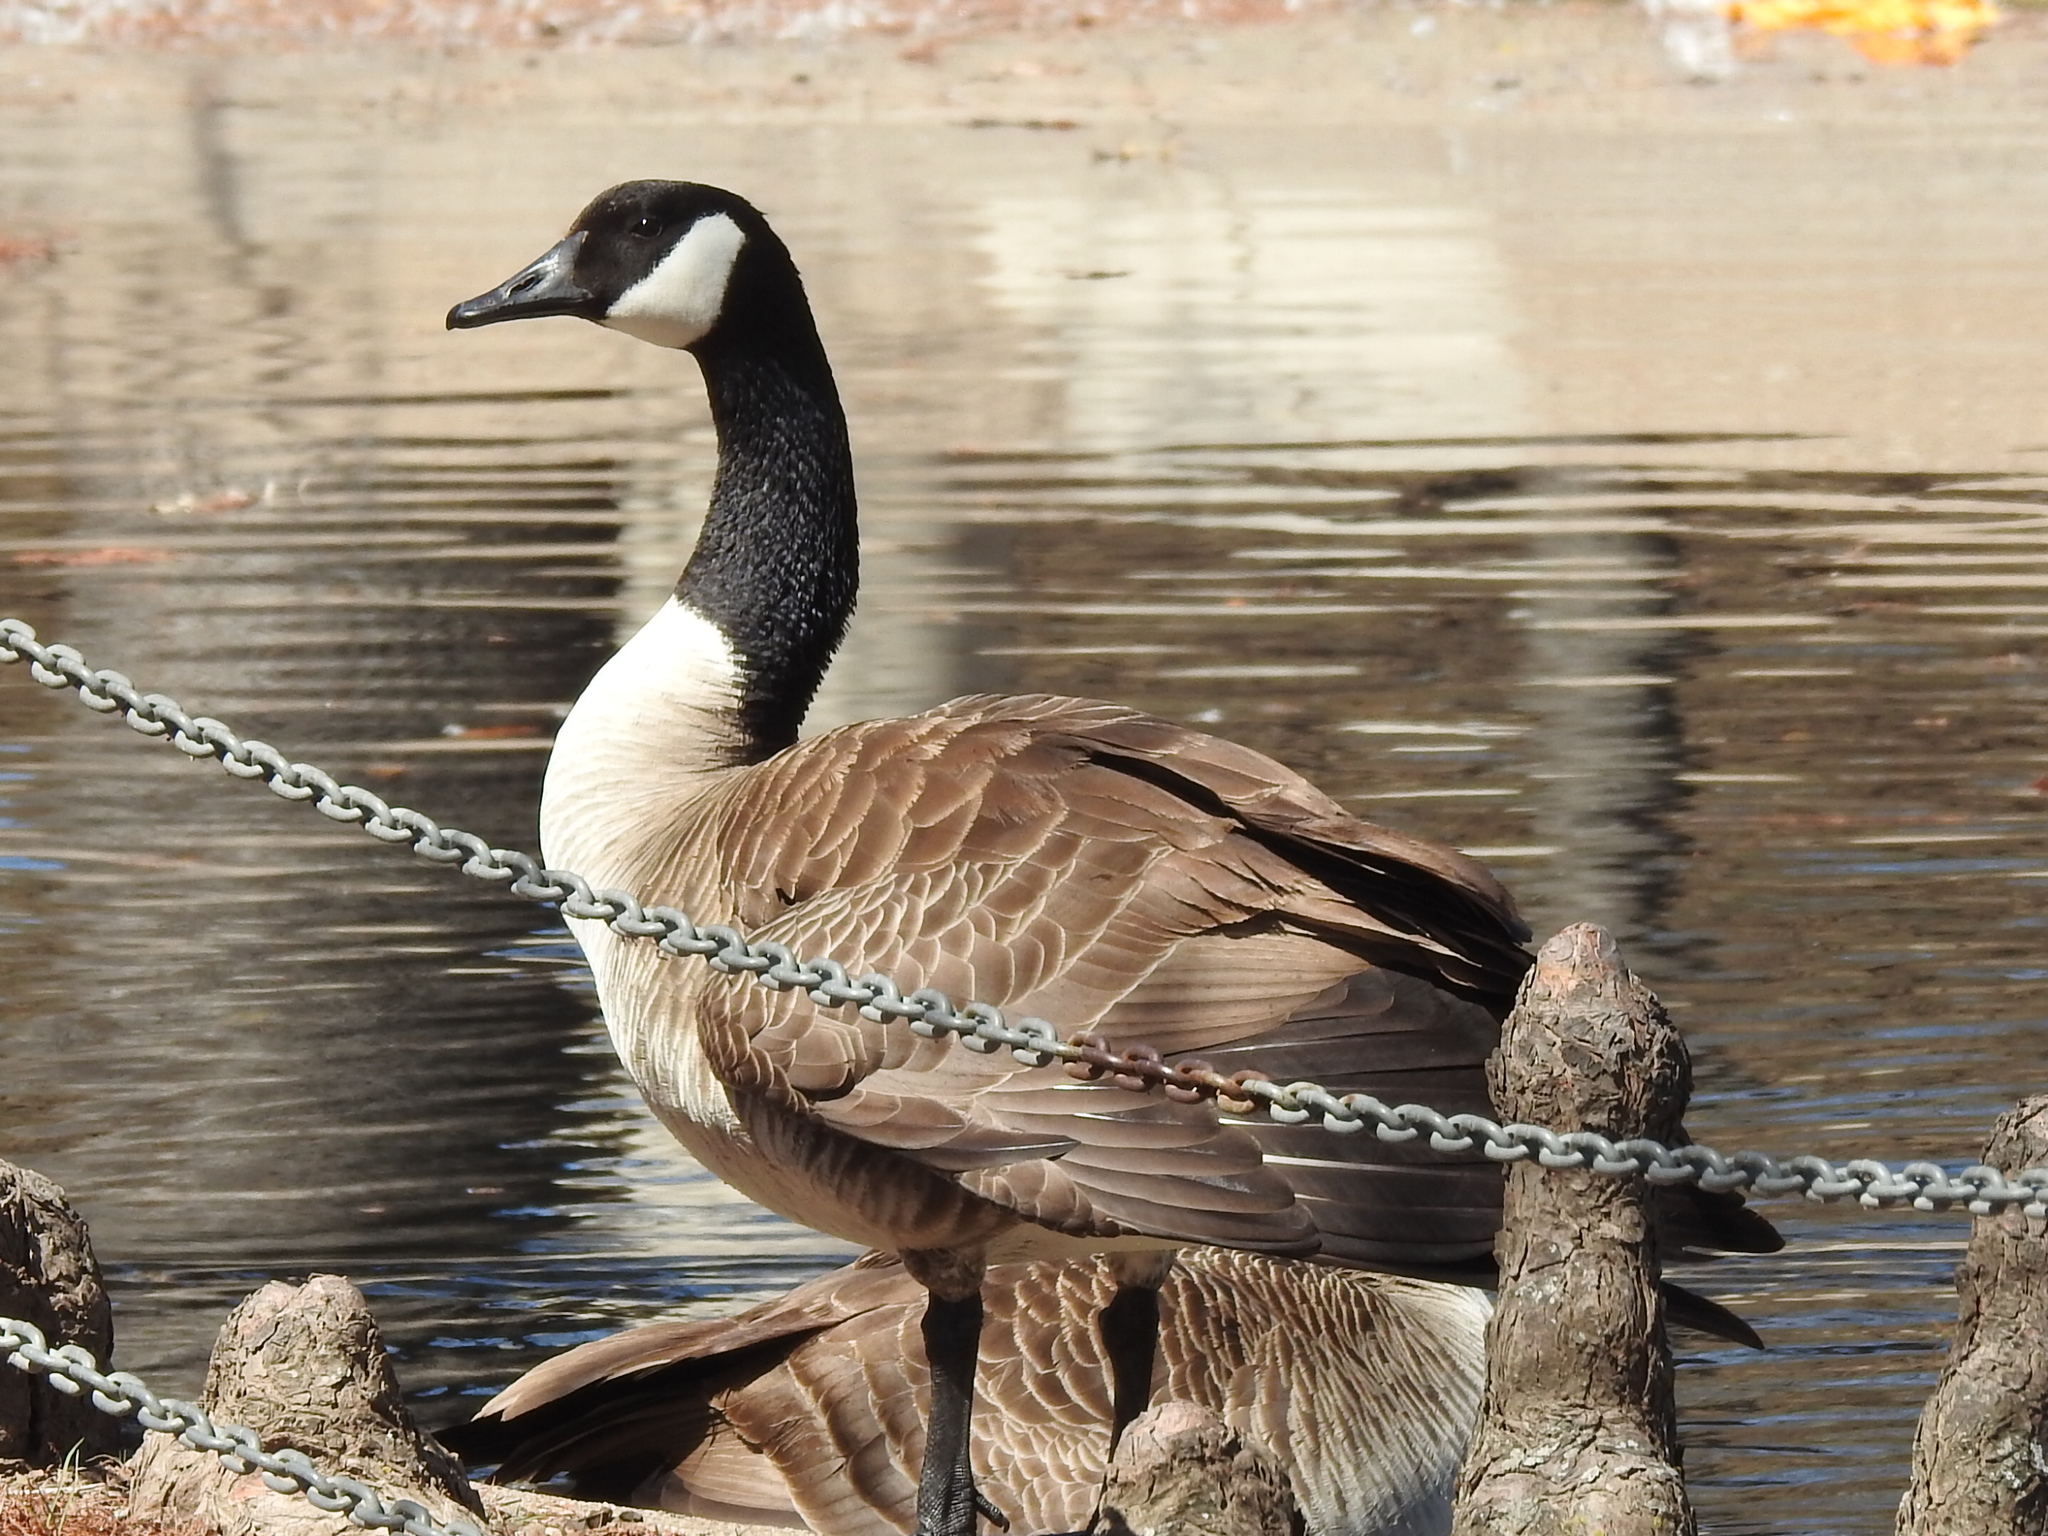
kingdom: Animalia
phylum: Chordata
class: Aves
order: Anseriformes
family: Anatidae
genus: Branta
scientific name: Branta canadensis
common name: Canada goose
